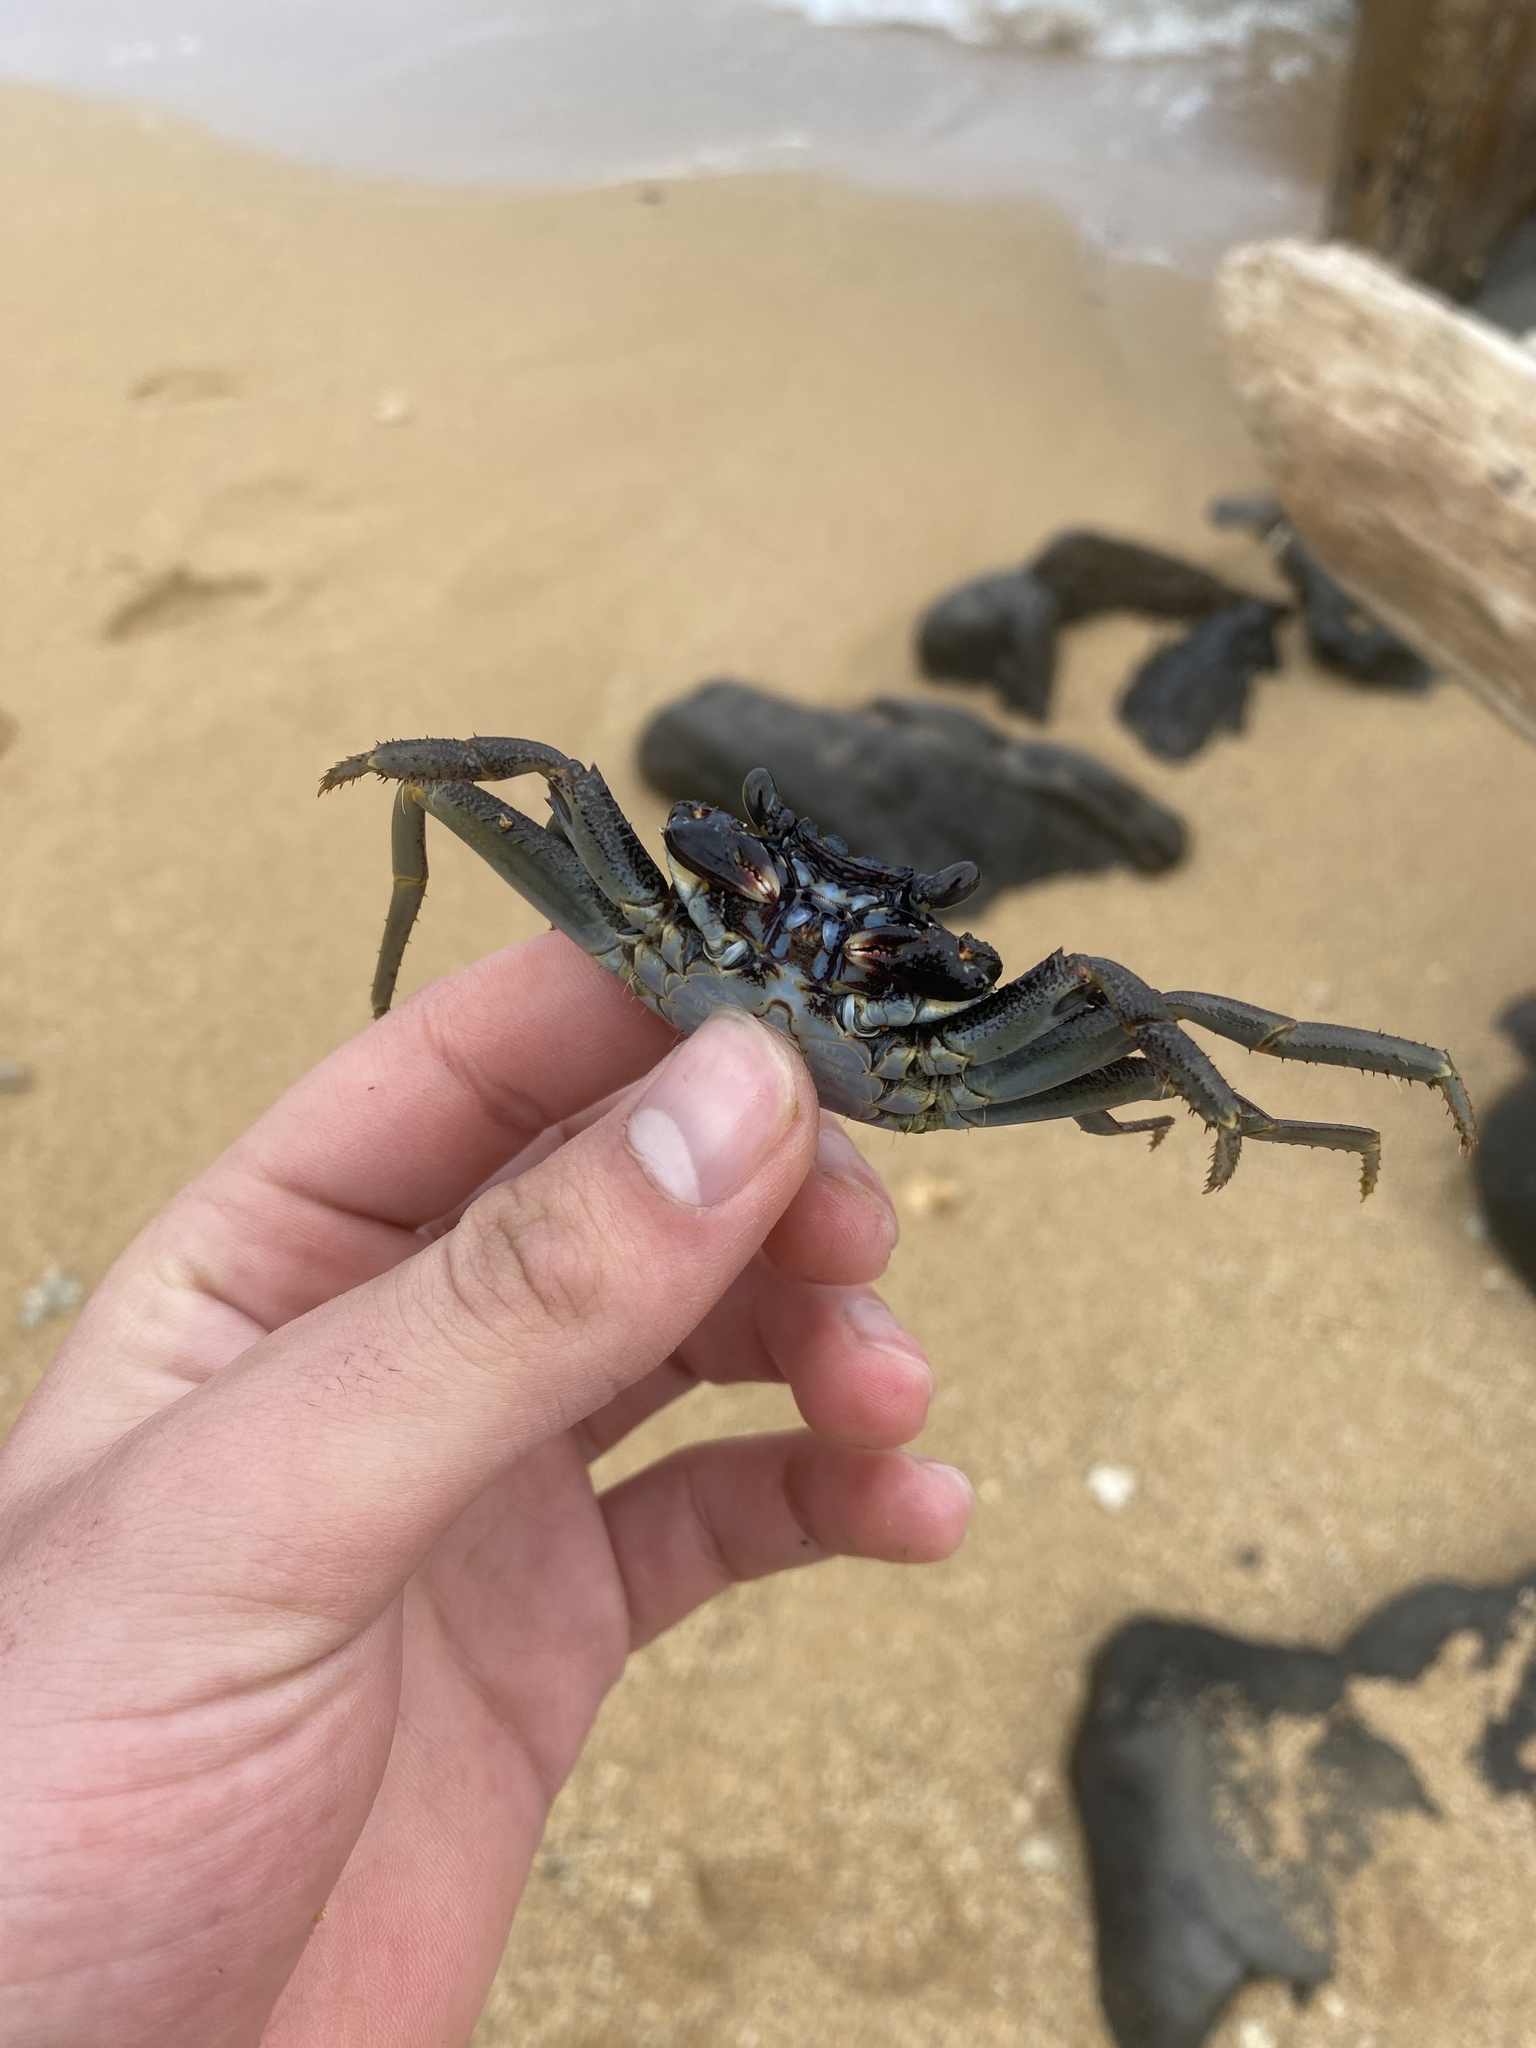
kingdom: Animalia
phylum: Arthropoda
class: Malacostraca
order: Decapoda
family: Grapsidae
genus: Grapsus
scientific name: Grapsus tenuicrustatus
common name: Natal lightfoot crab
